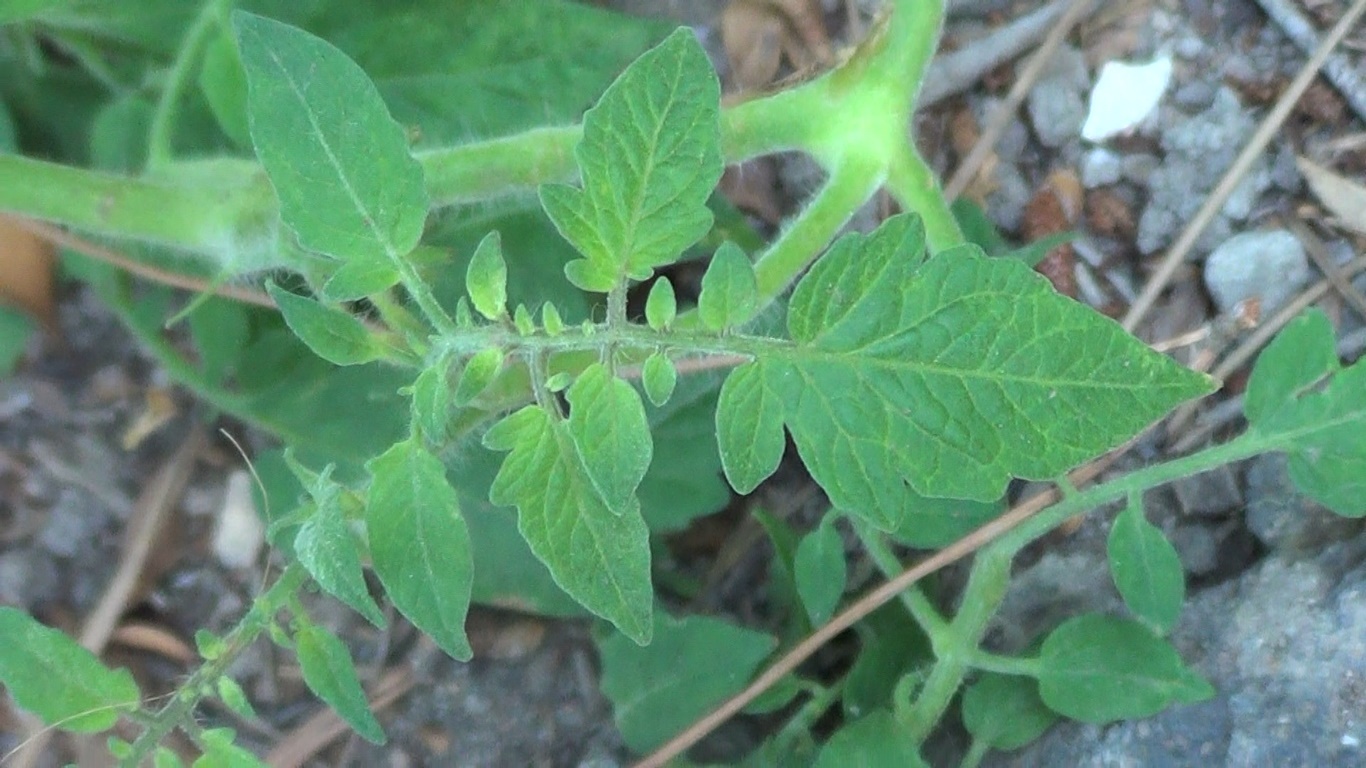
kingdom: Plantae
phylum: Tracheophyta
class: Magnoliopsida
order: Solanales
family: Solanaceae
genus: Solanum
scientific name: Solanum lycopersicum
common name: Garden tomato
